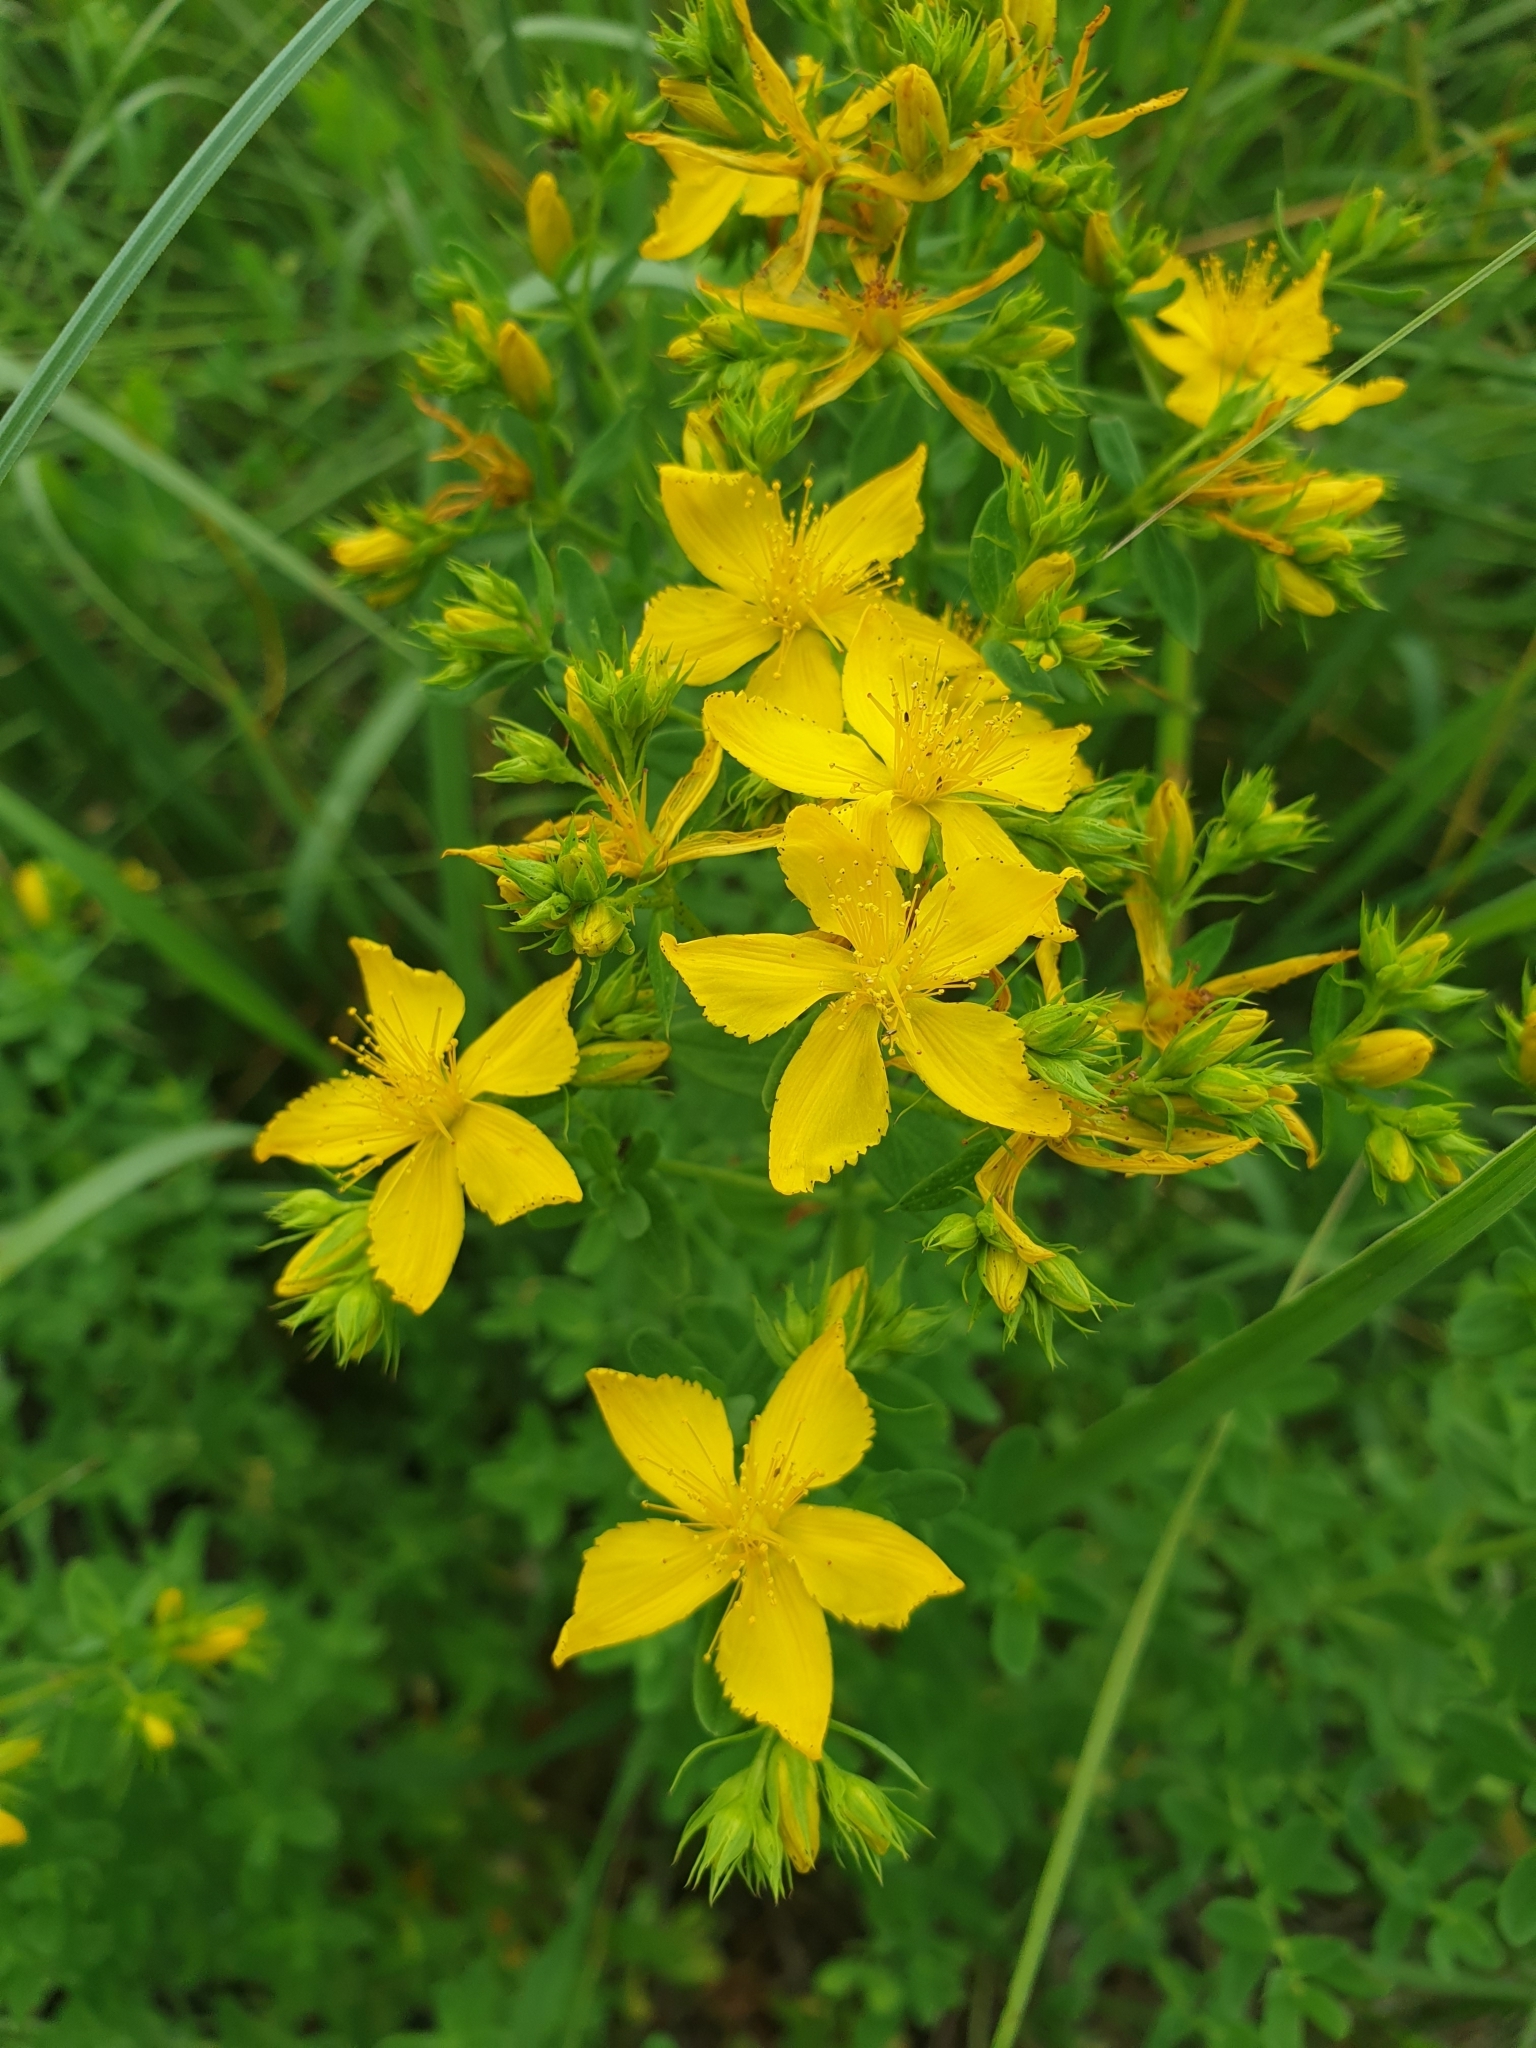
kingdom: Plantae
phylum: Tracheophyta
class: Magnoliopsida
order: Malpighiales
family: Hypericaceae
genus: Hypericum
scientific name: Hypericum perforatum
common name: Common st. johnswort
